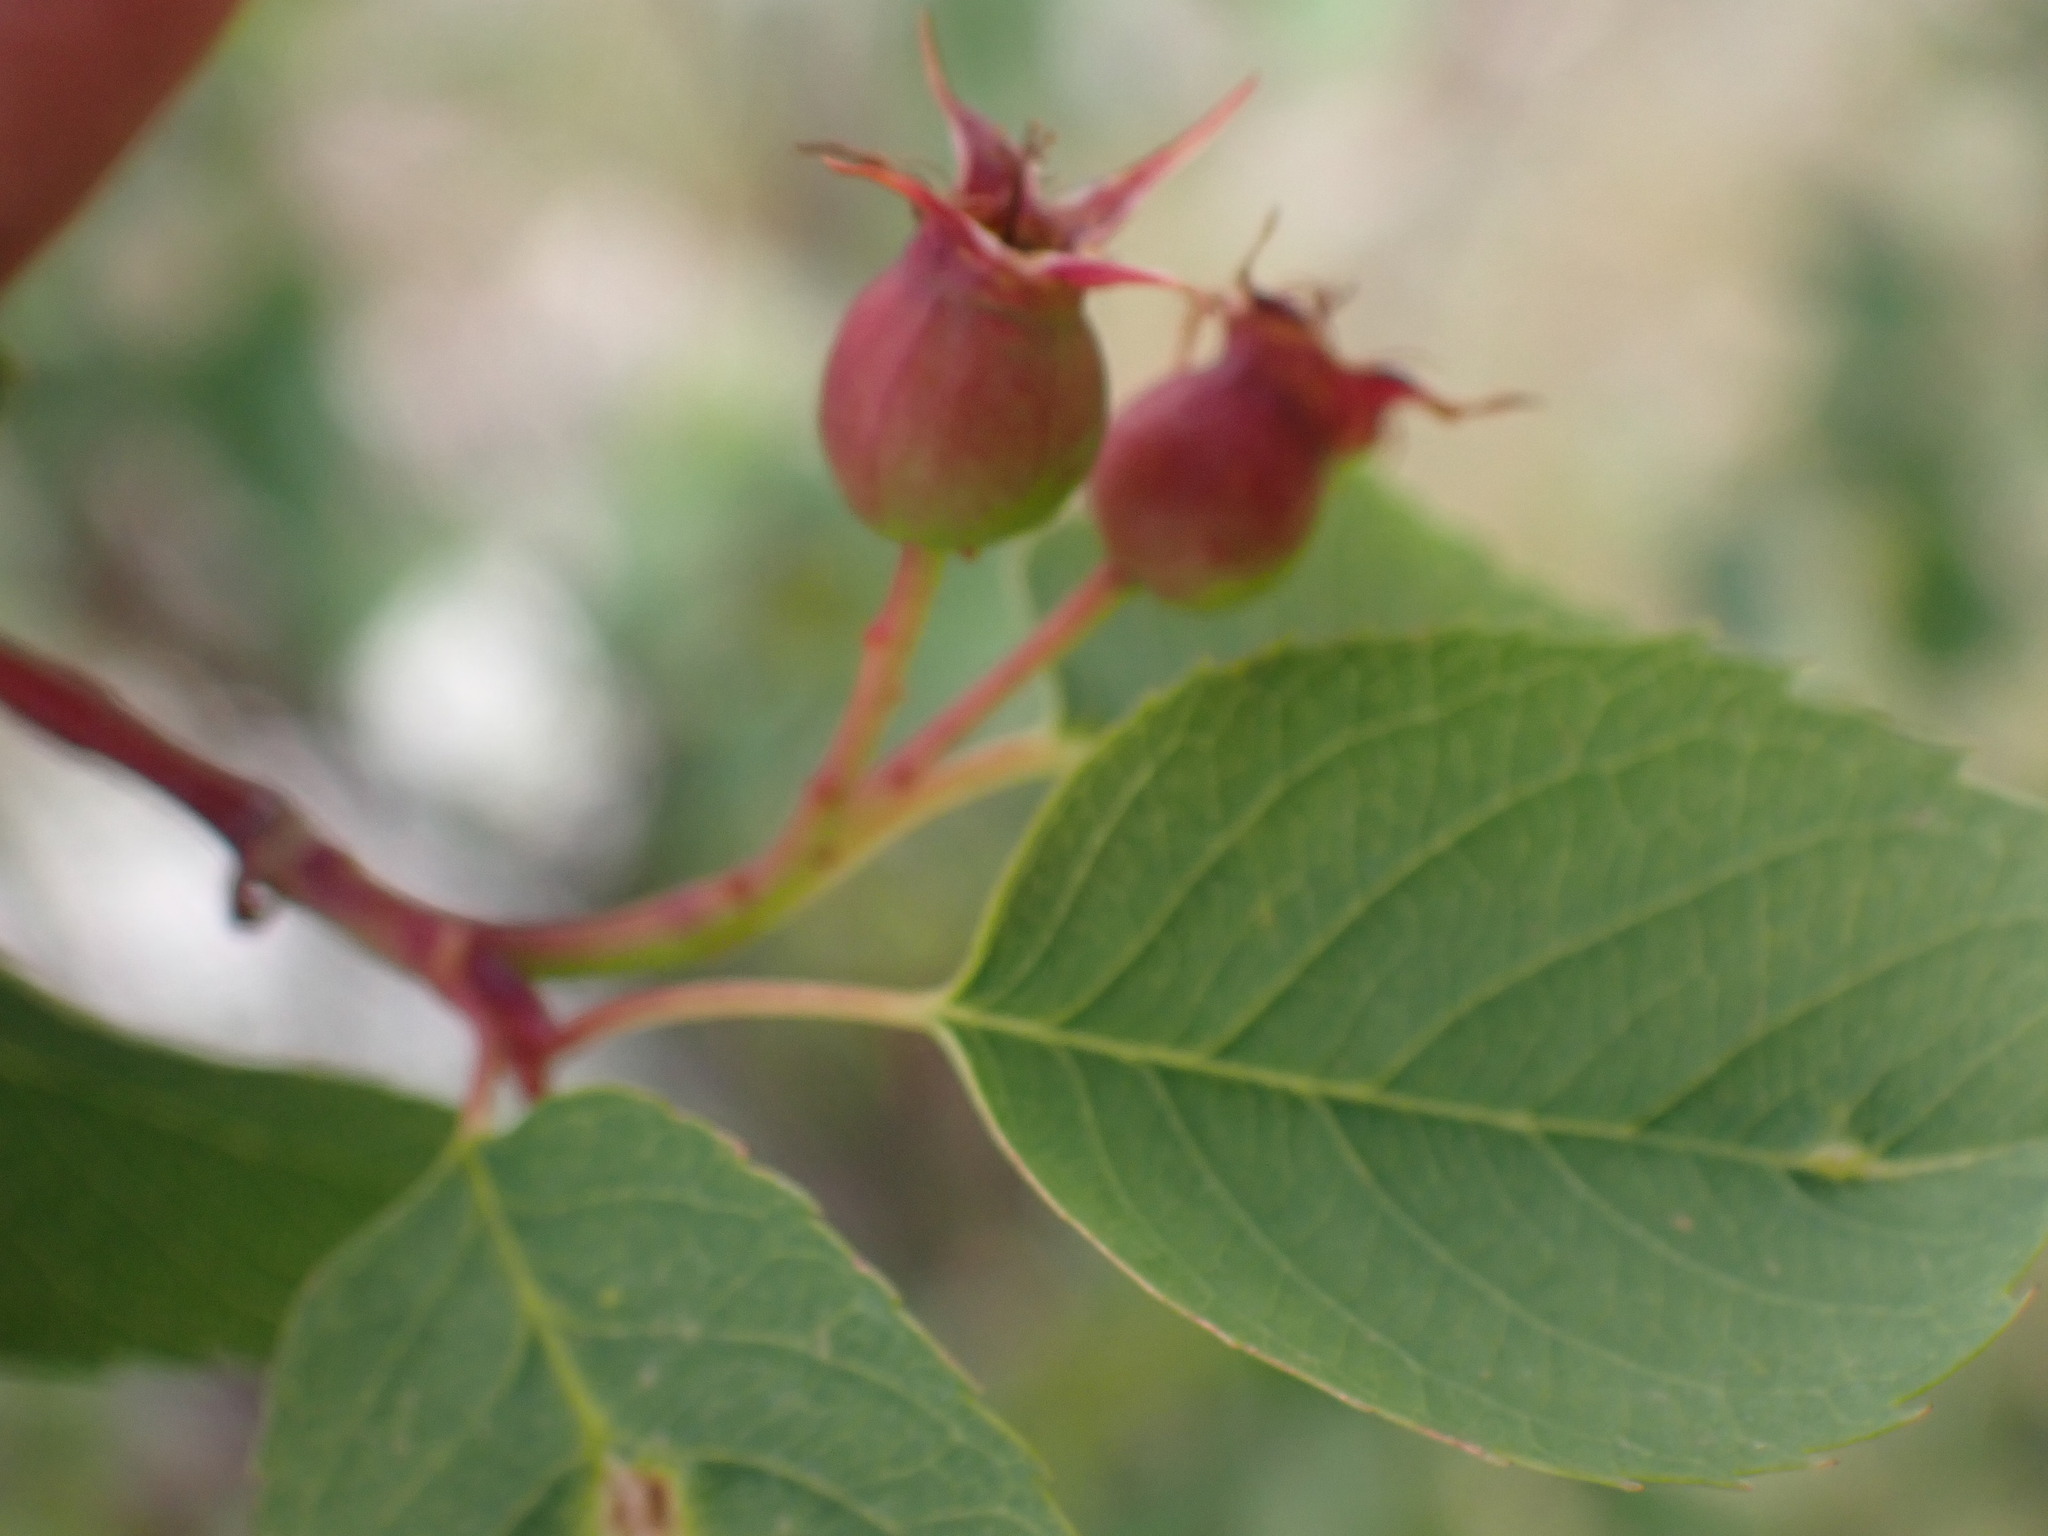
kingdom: Plantae
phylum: Tracheophyta
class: Magnoliopsida
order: Rosales
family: Rosaceae
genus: Amelanchier
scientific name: Amelanchier alnifolia
